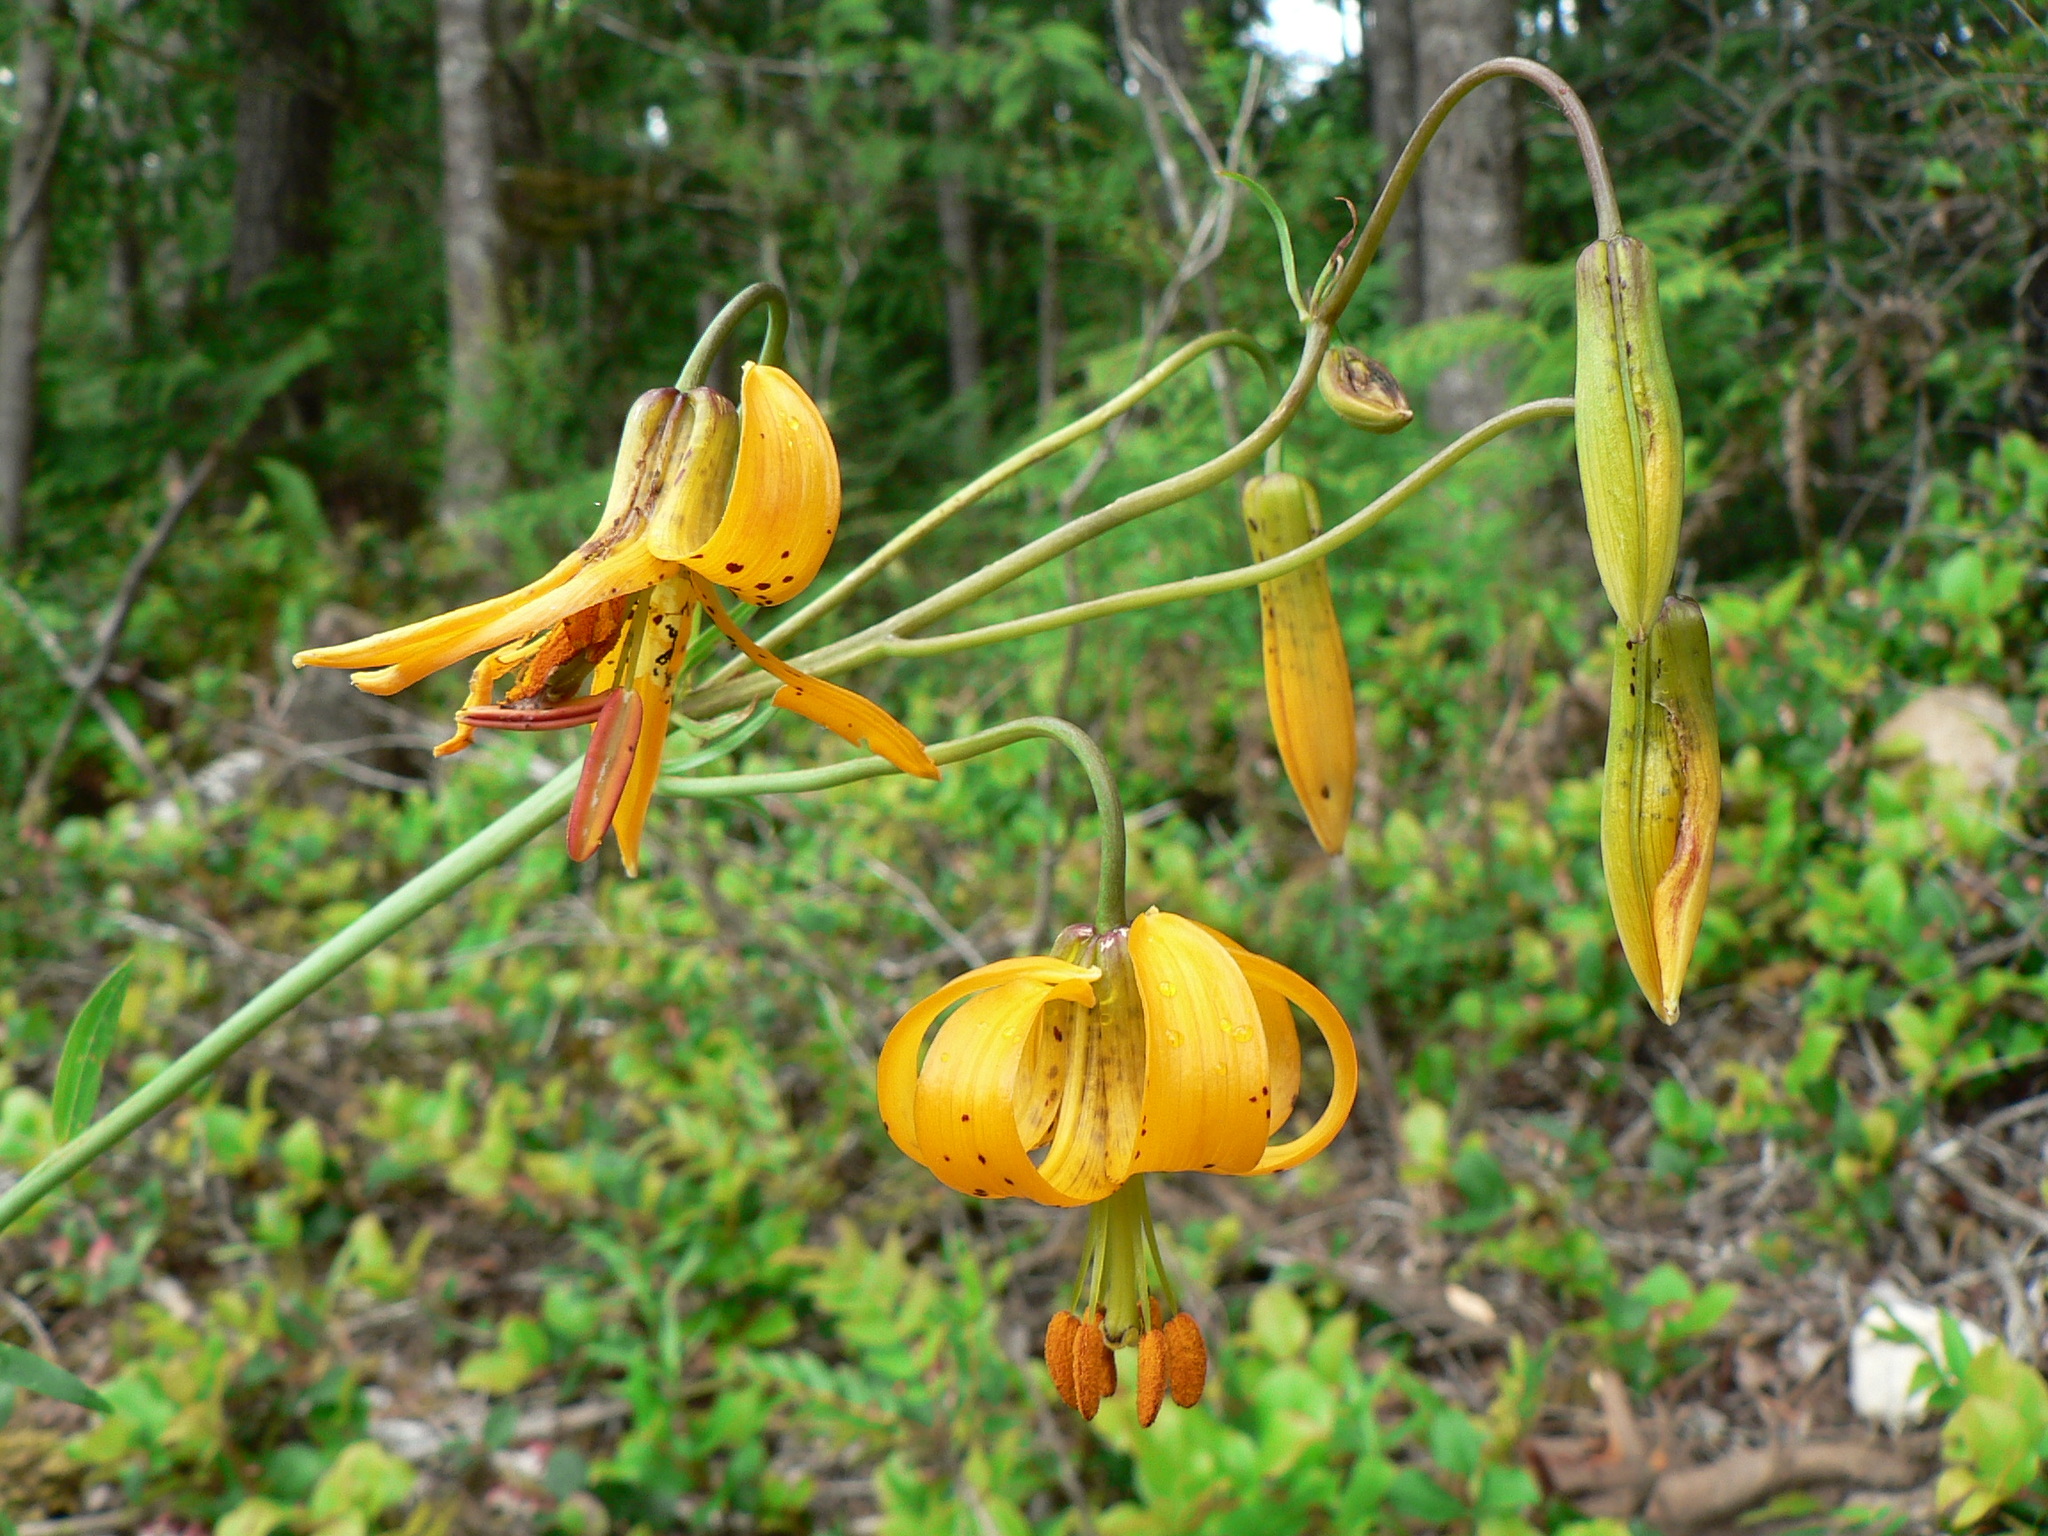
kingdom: Plantae
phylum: Tracheophyta
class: Liliopsida
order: Liliales
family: Liliaceae
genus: Lilium
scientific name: Lilium columbianum
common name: Columbia lily
